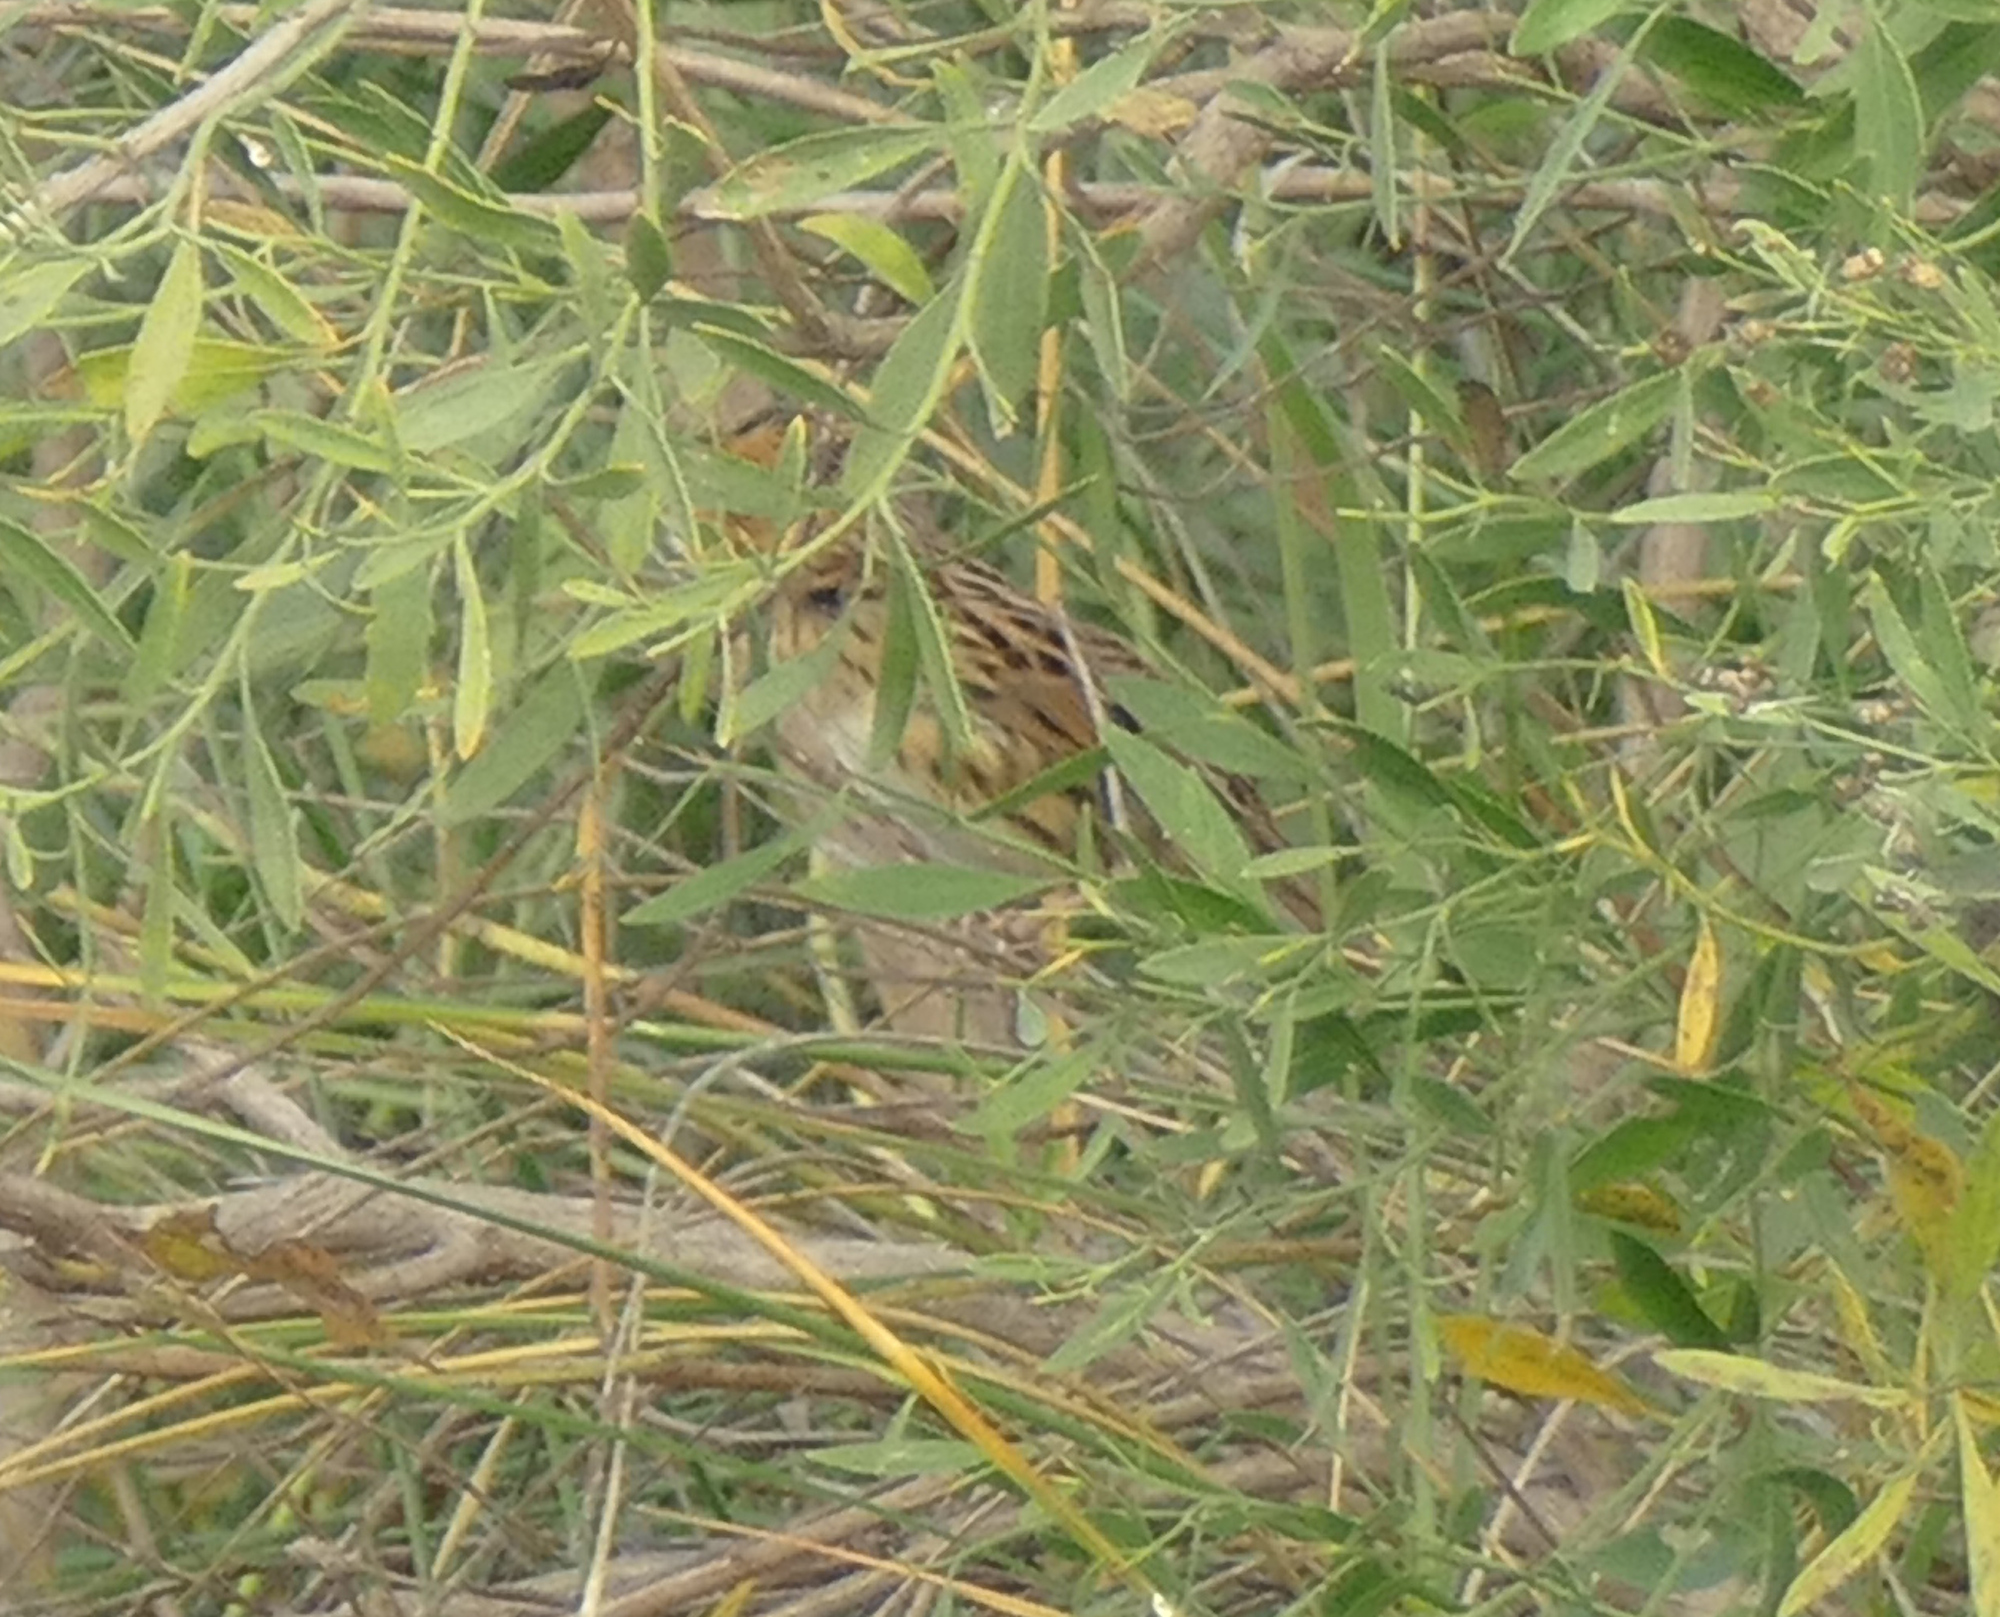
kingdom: Animalia
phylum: Chordata
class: Aves
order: Passeriformes
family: Passerellidae
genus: Ammospiza
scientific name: Ammospiza leconteii
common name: Le conte's sparrow
